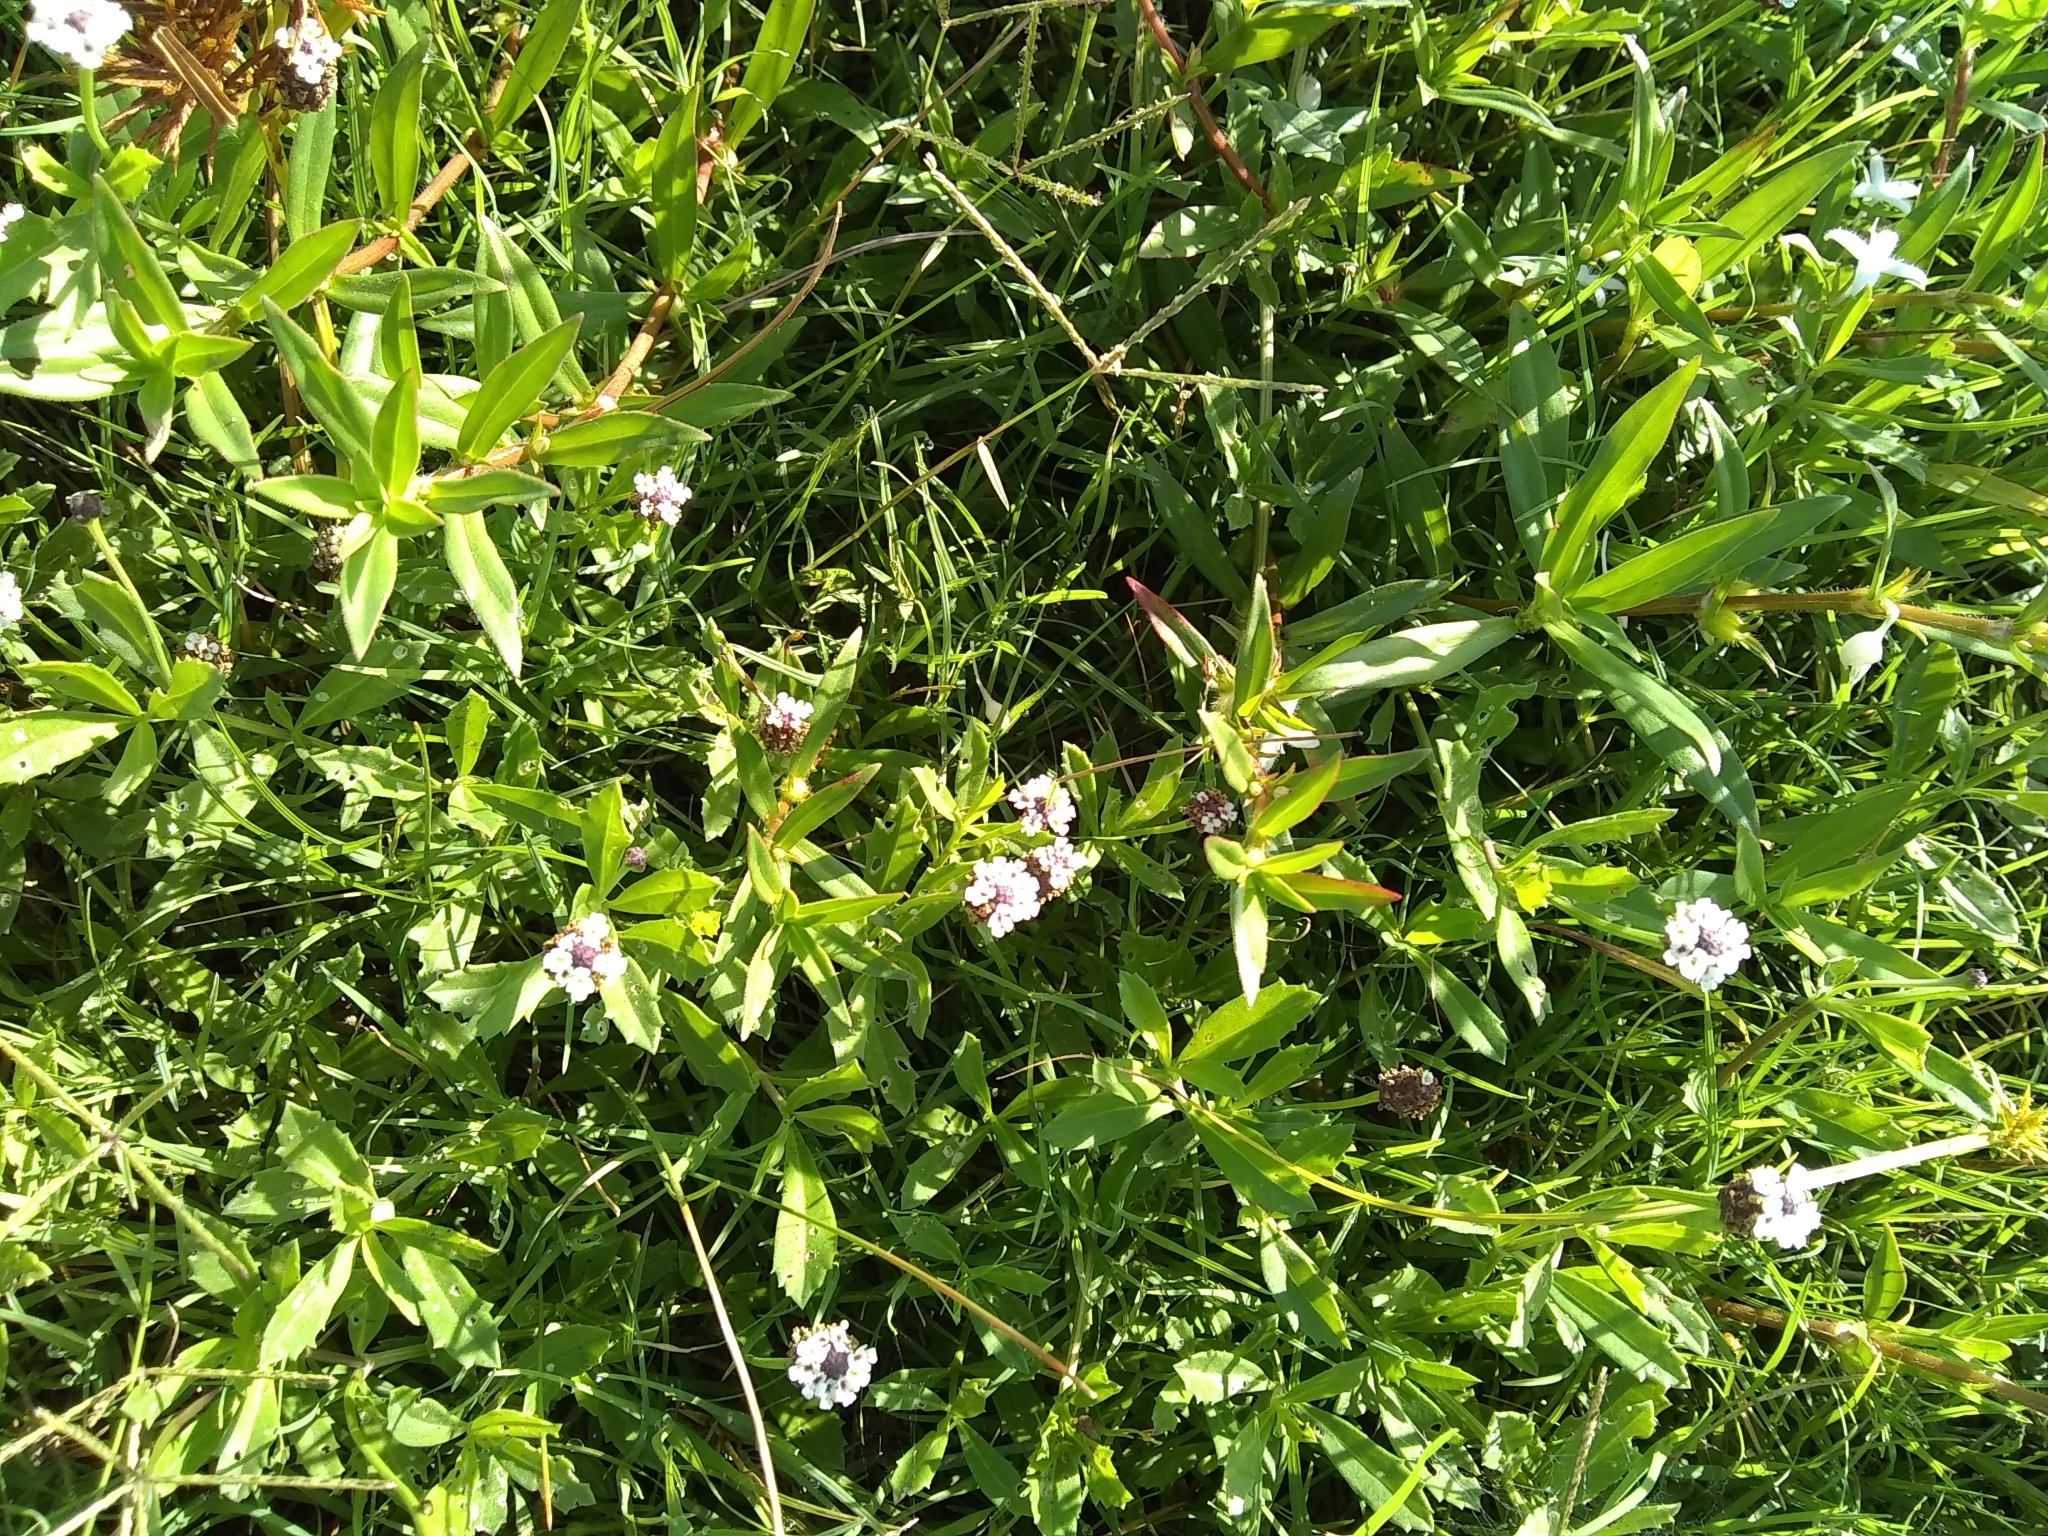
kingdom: Plantae
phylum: Tracheophyta
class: Magnoliopsida
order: Lamiales
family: Verbenaceae
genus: Phyla
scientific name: Phyla nodiflora
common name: Frogfruit
